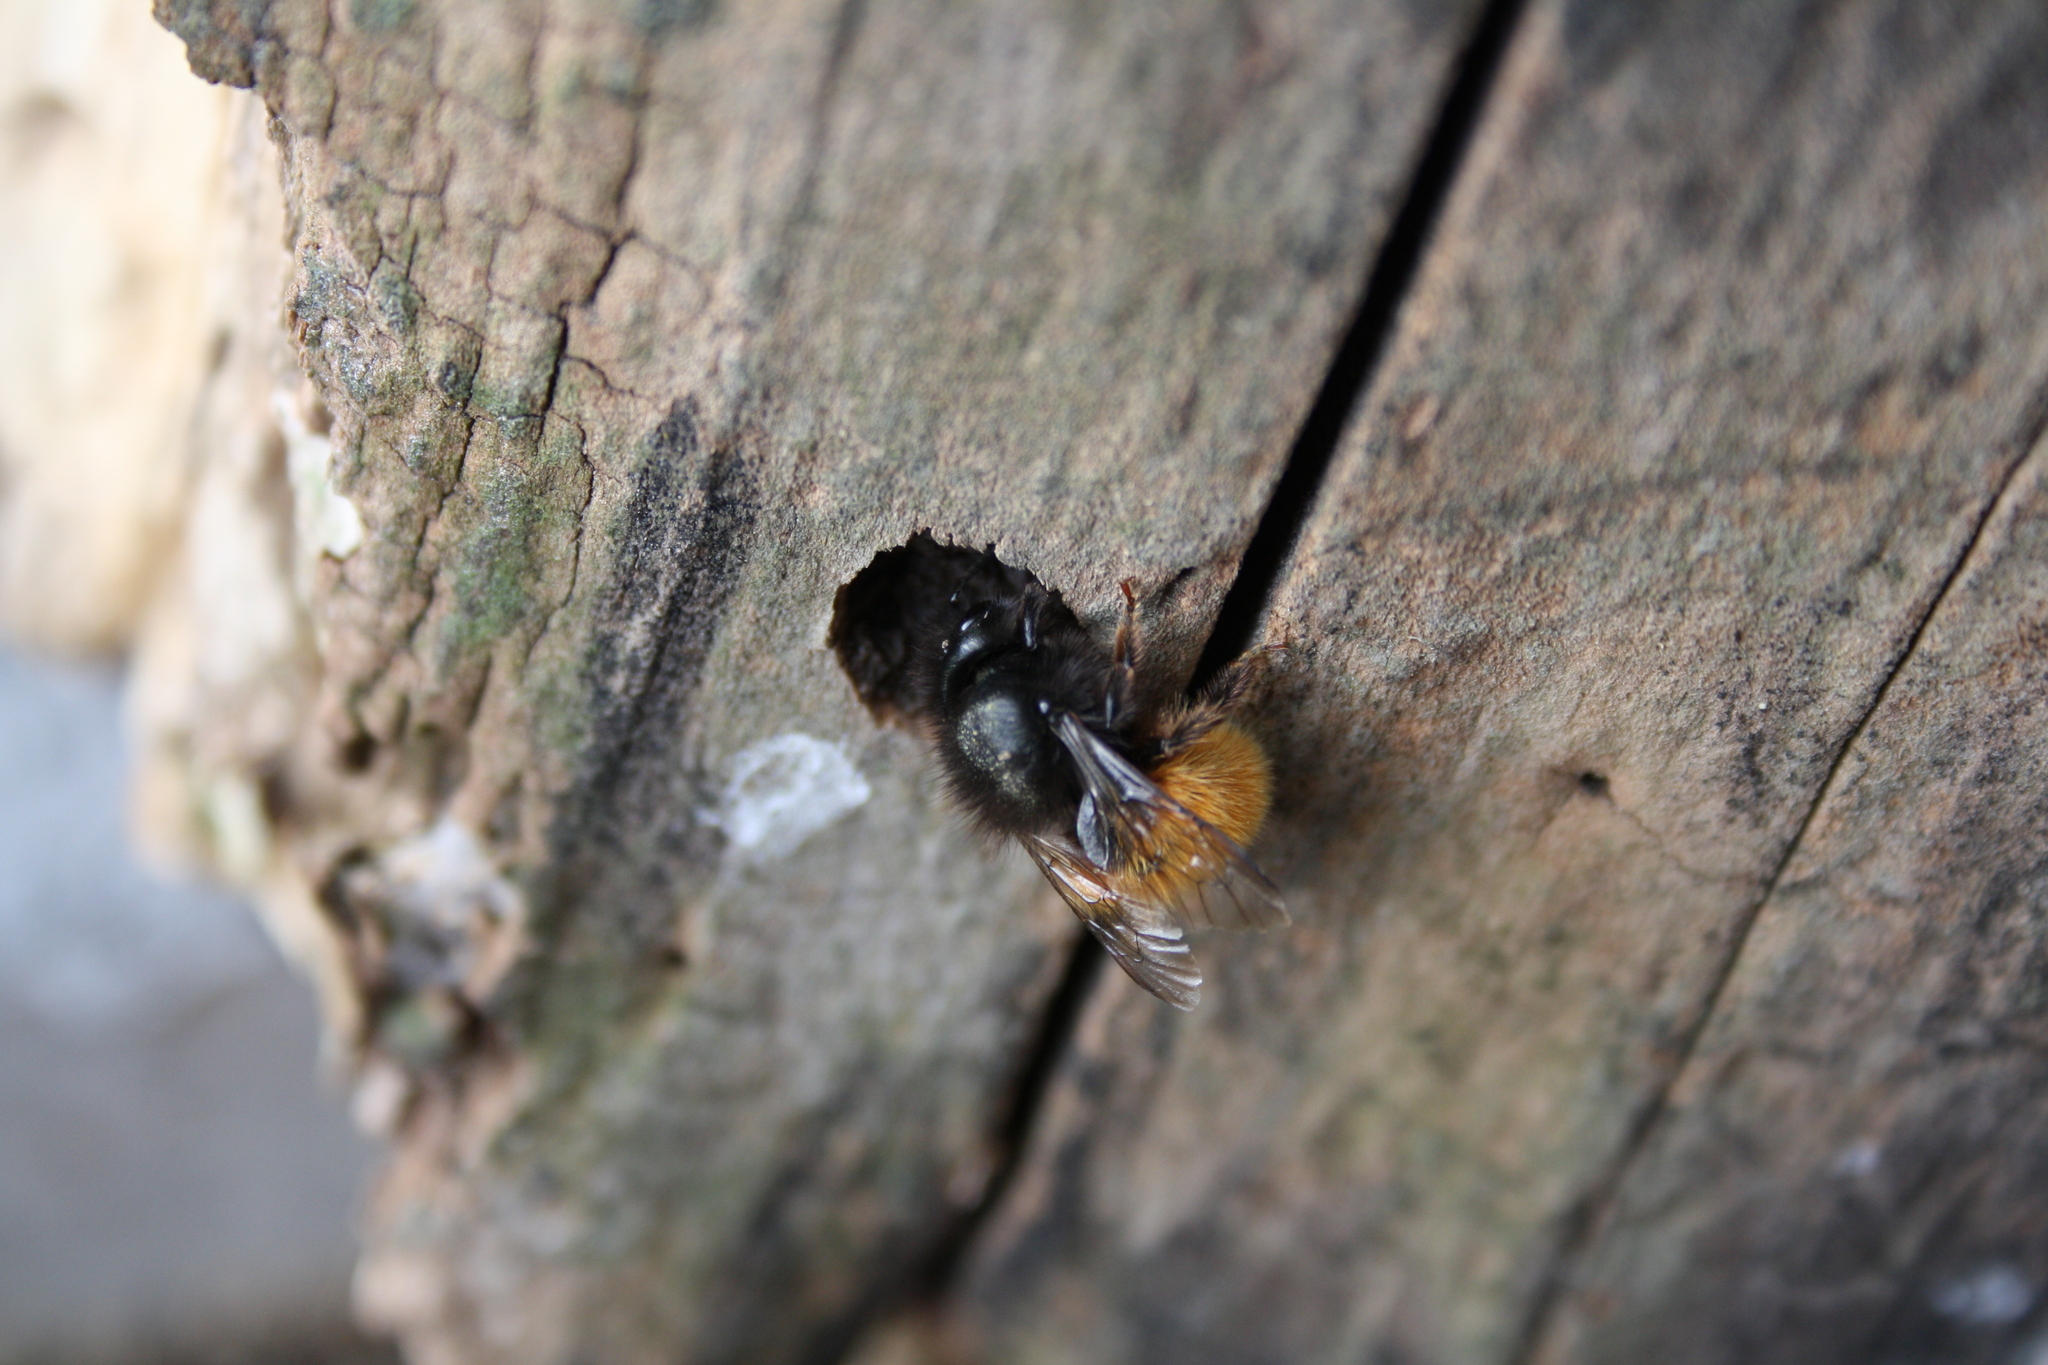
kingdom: Animalia
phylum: Arthropoda
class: Insecta
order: Hymenoptera
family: Megachilidae
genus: Osmia
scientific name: Osmia cornuta
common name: Mason bee
